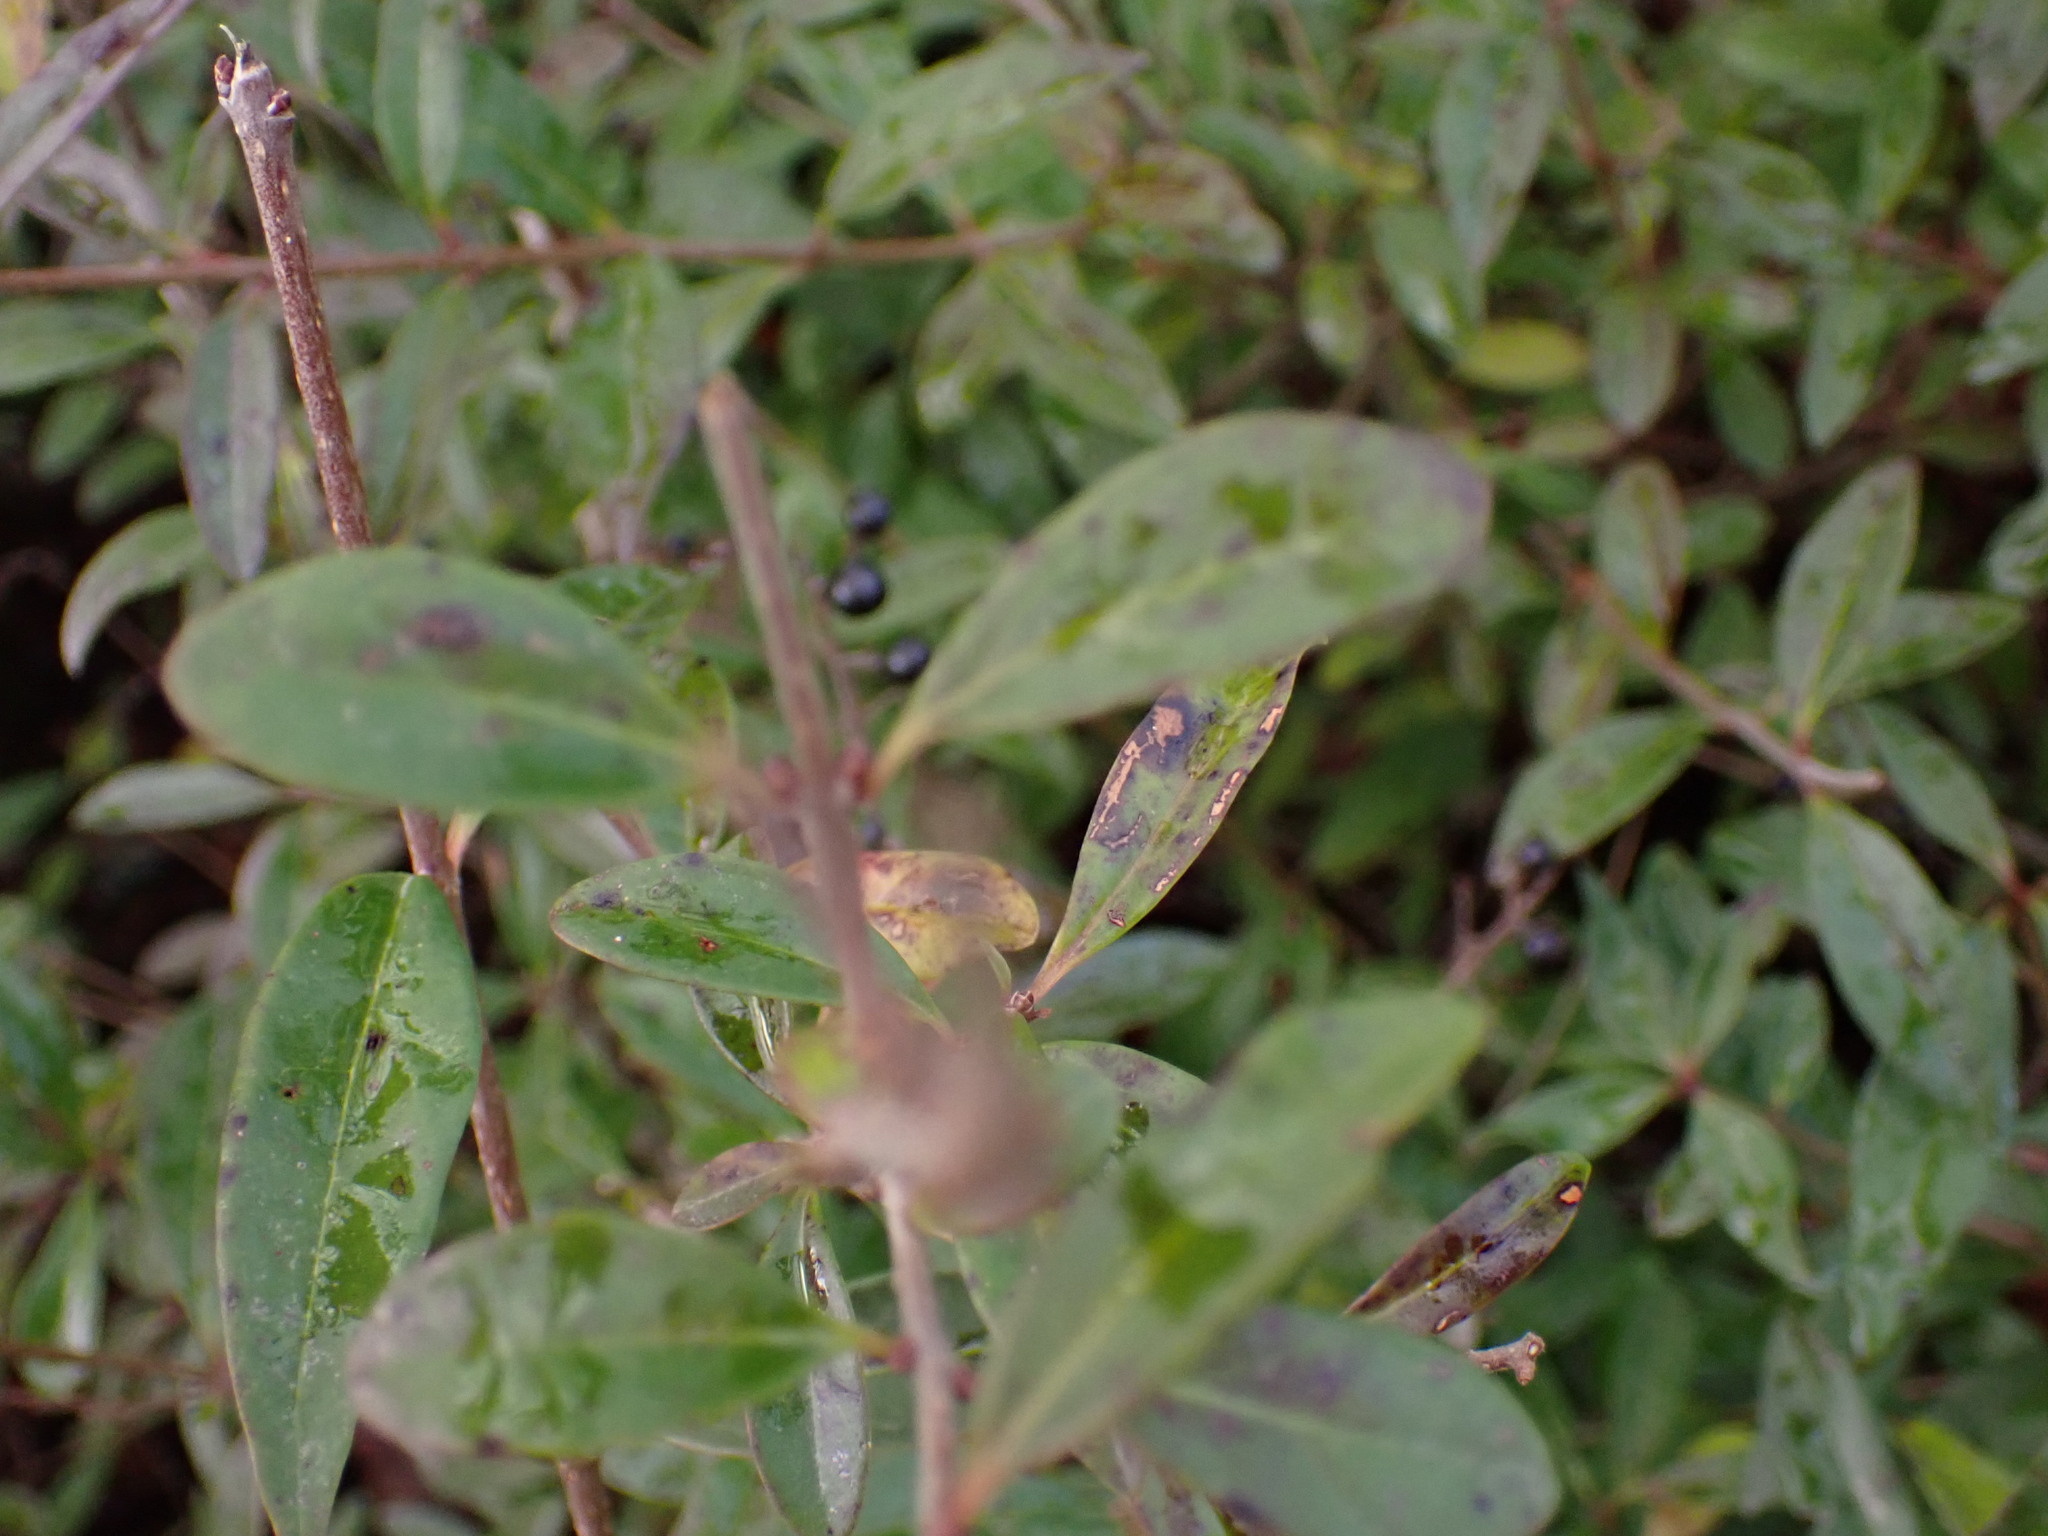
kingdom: Plantae
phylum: Tracheophyta
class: Magnoliopsida
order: Lamiales
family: Oleaceae
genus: Ligustrum
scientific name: Ligustrum vulgare
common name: Wild privet
